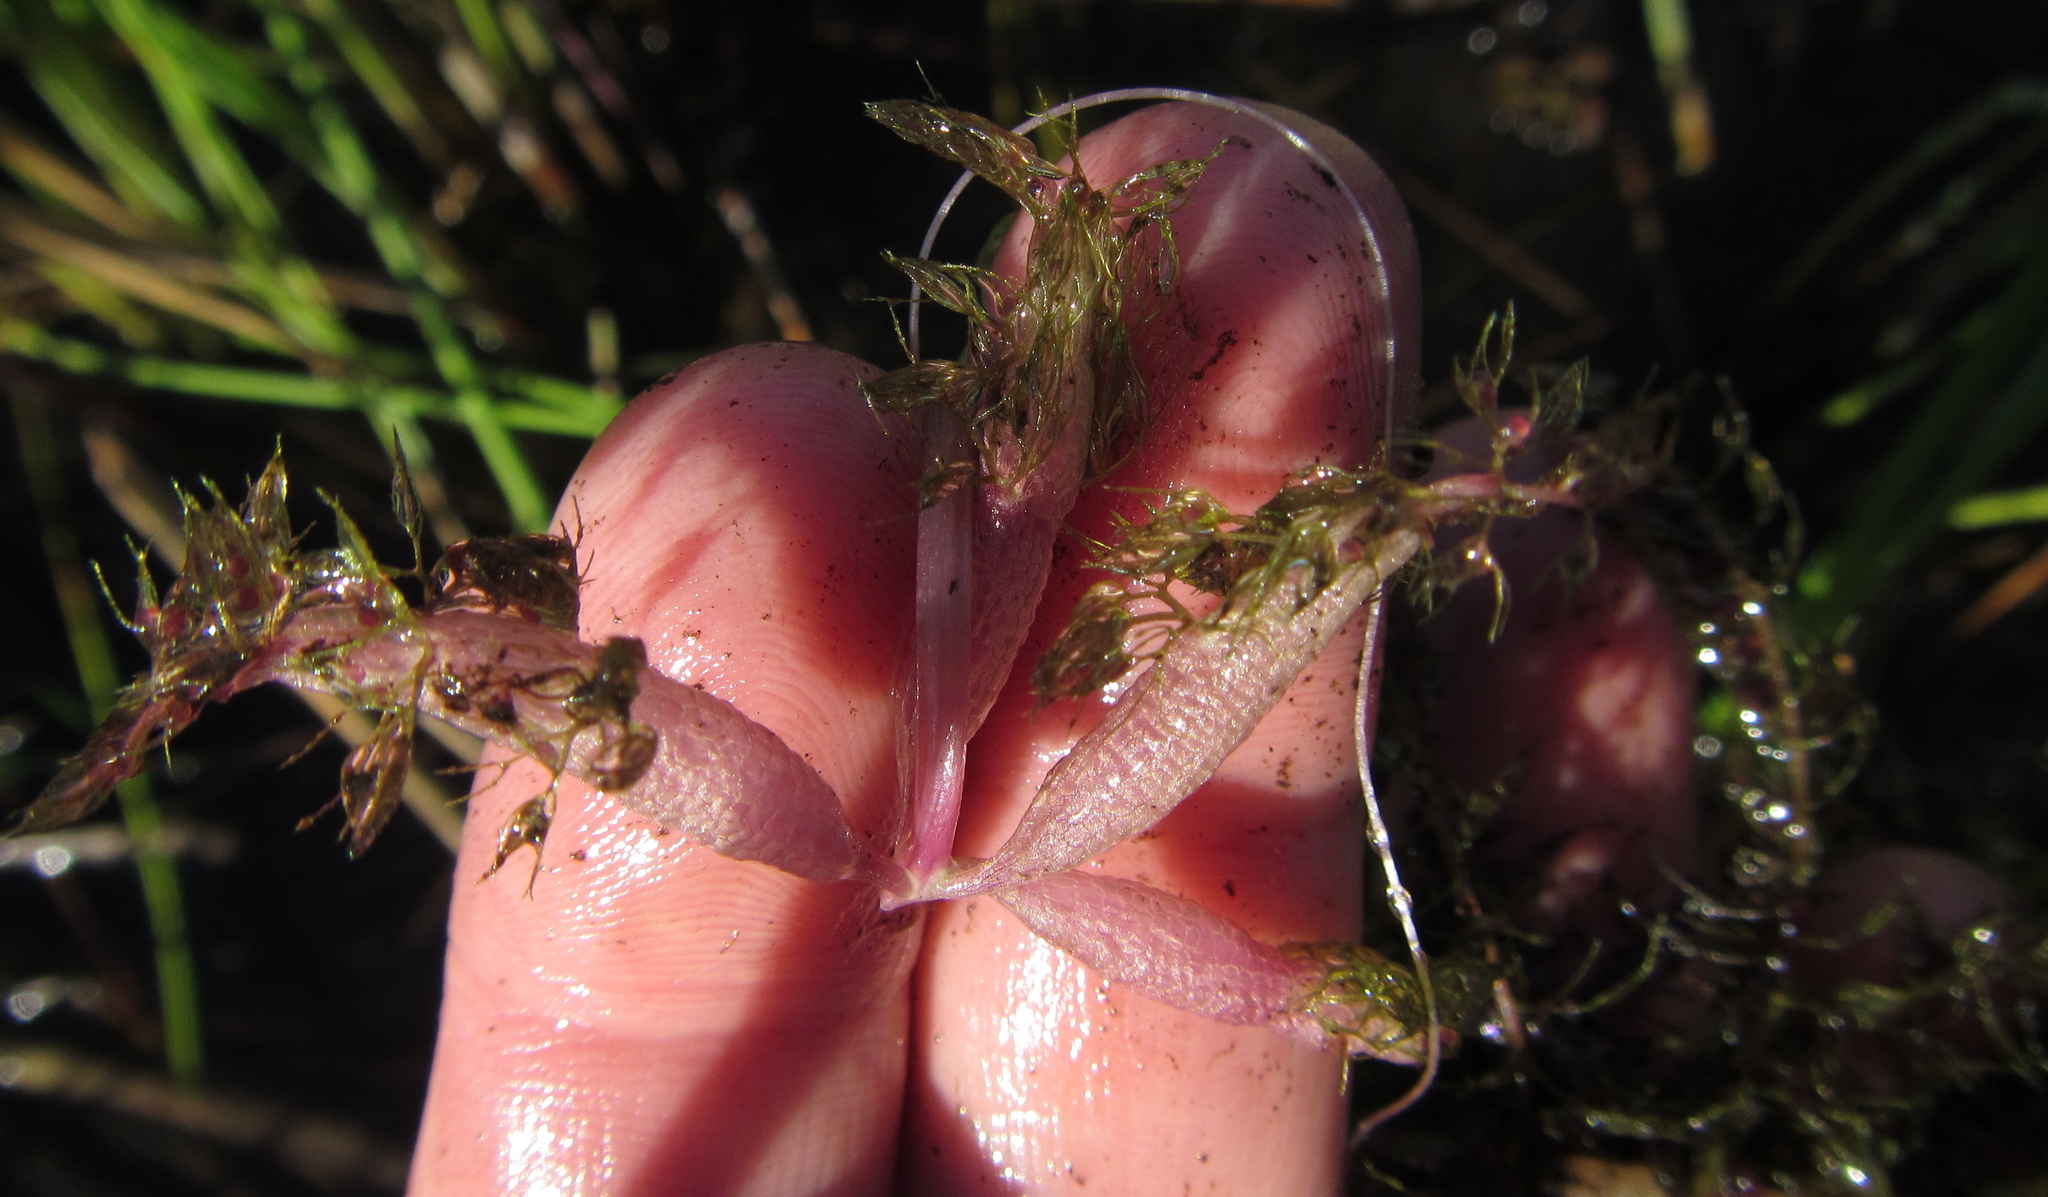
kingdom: Plantae
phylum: Tracheophyta
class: Magnoliopsida
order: Lamiales
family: Lentibulariaceae
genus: Utricularia
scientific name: Utricularia stellaris
